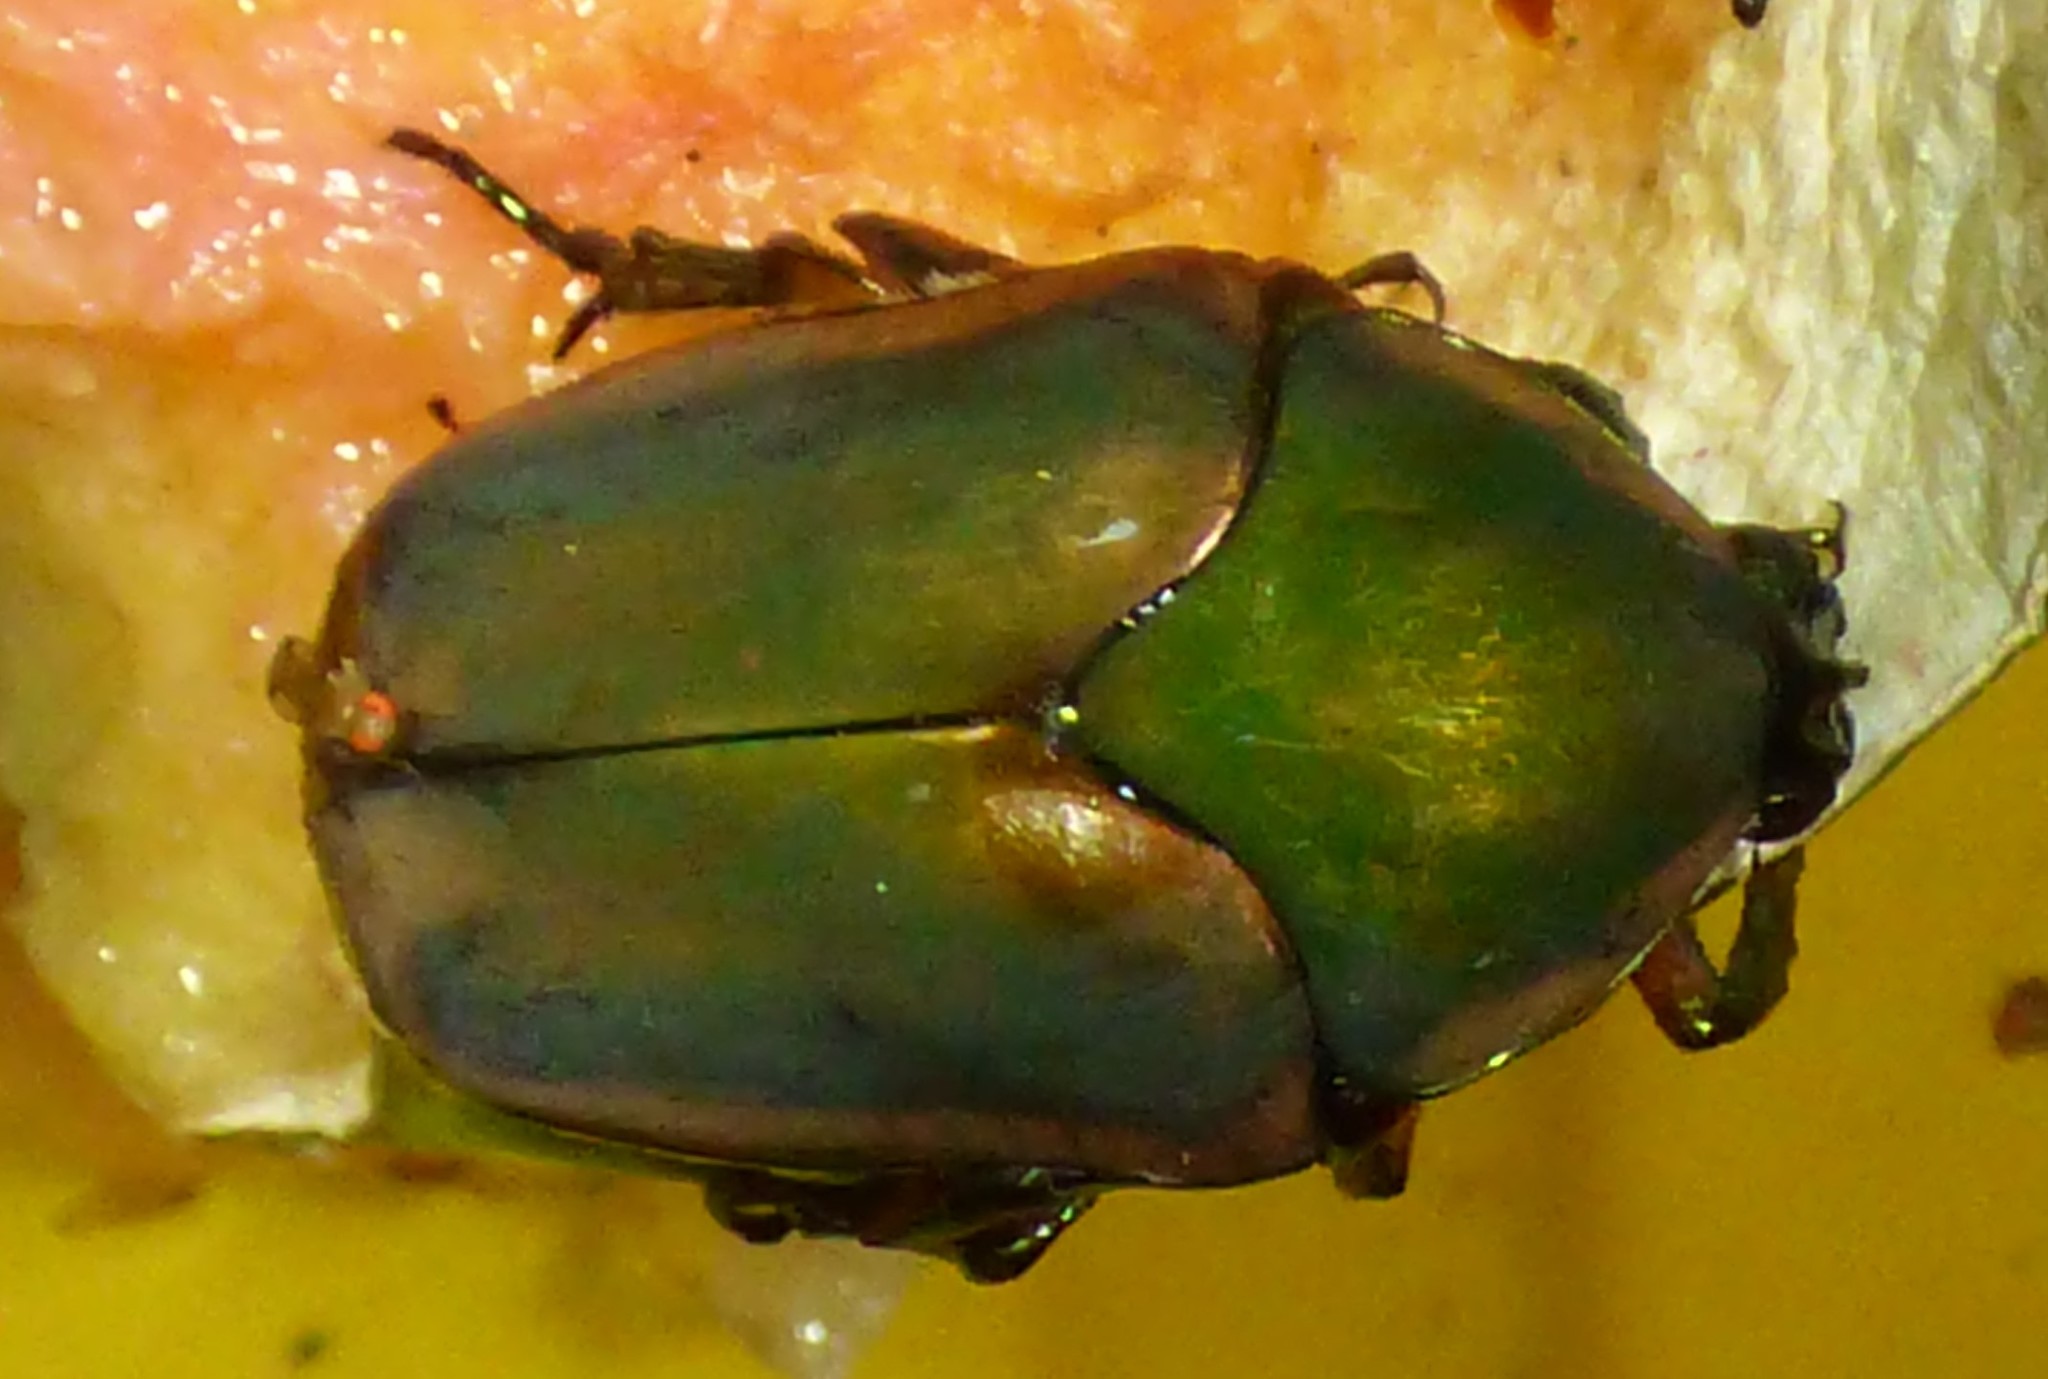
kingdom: Animalia
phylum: Arthropoda
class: Insecta
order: Coleoptera
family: Scarabaeidae
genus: Cotinis
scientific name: Cotinis nitida
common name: Common green june beetle
